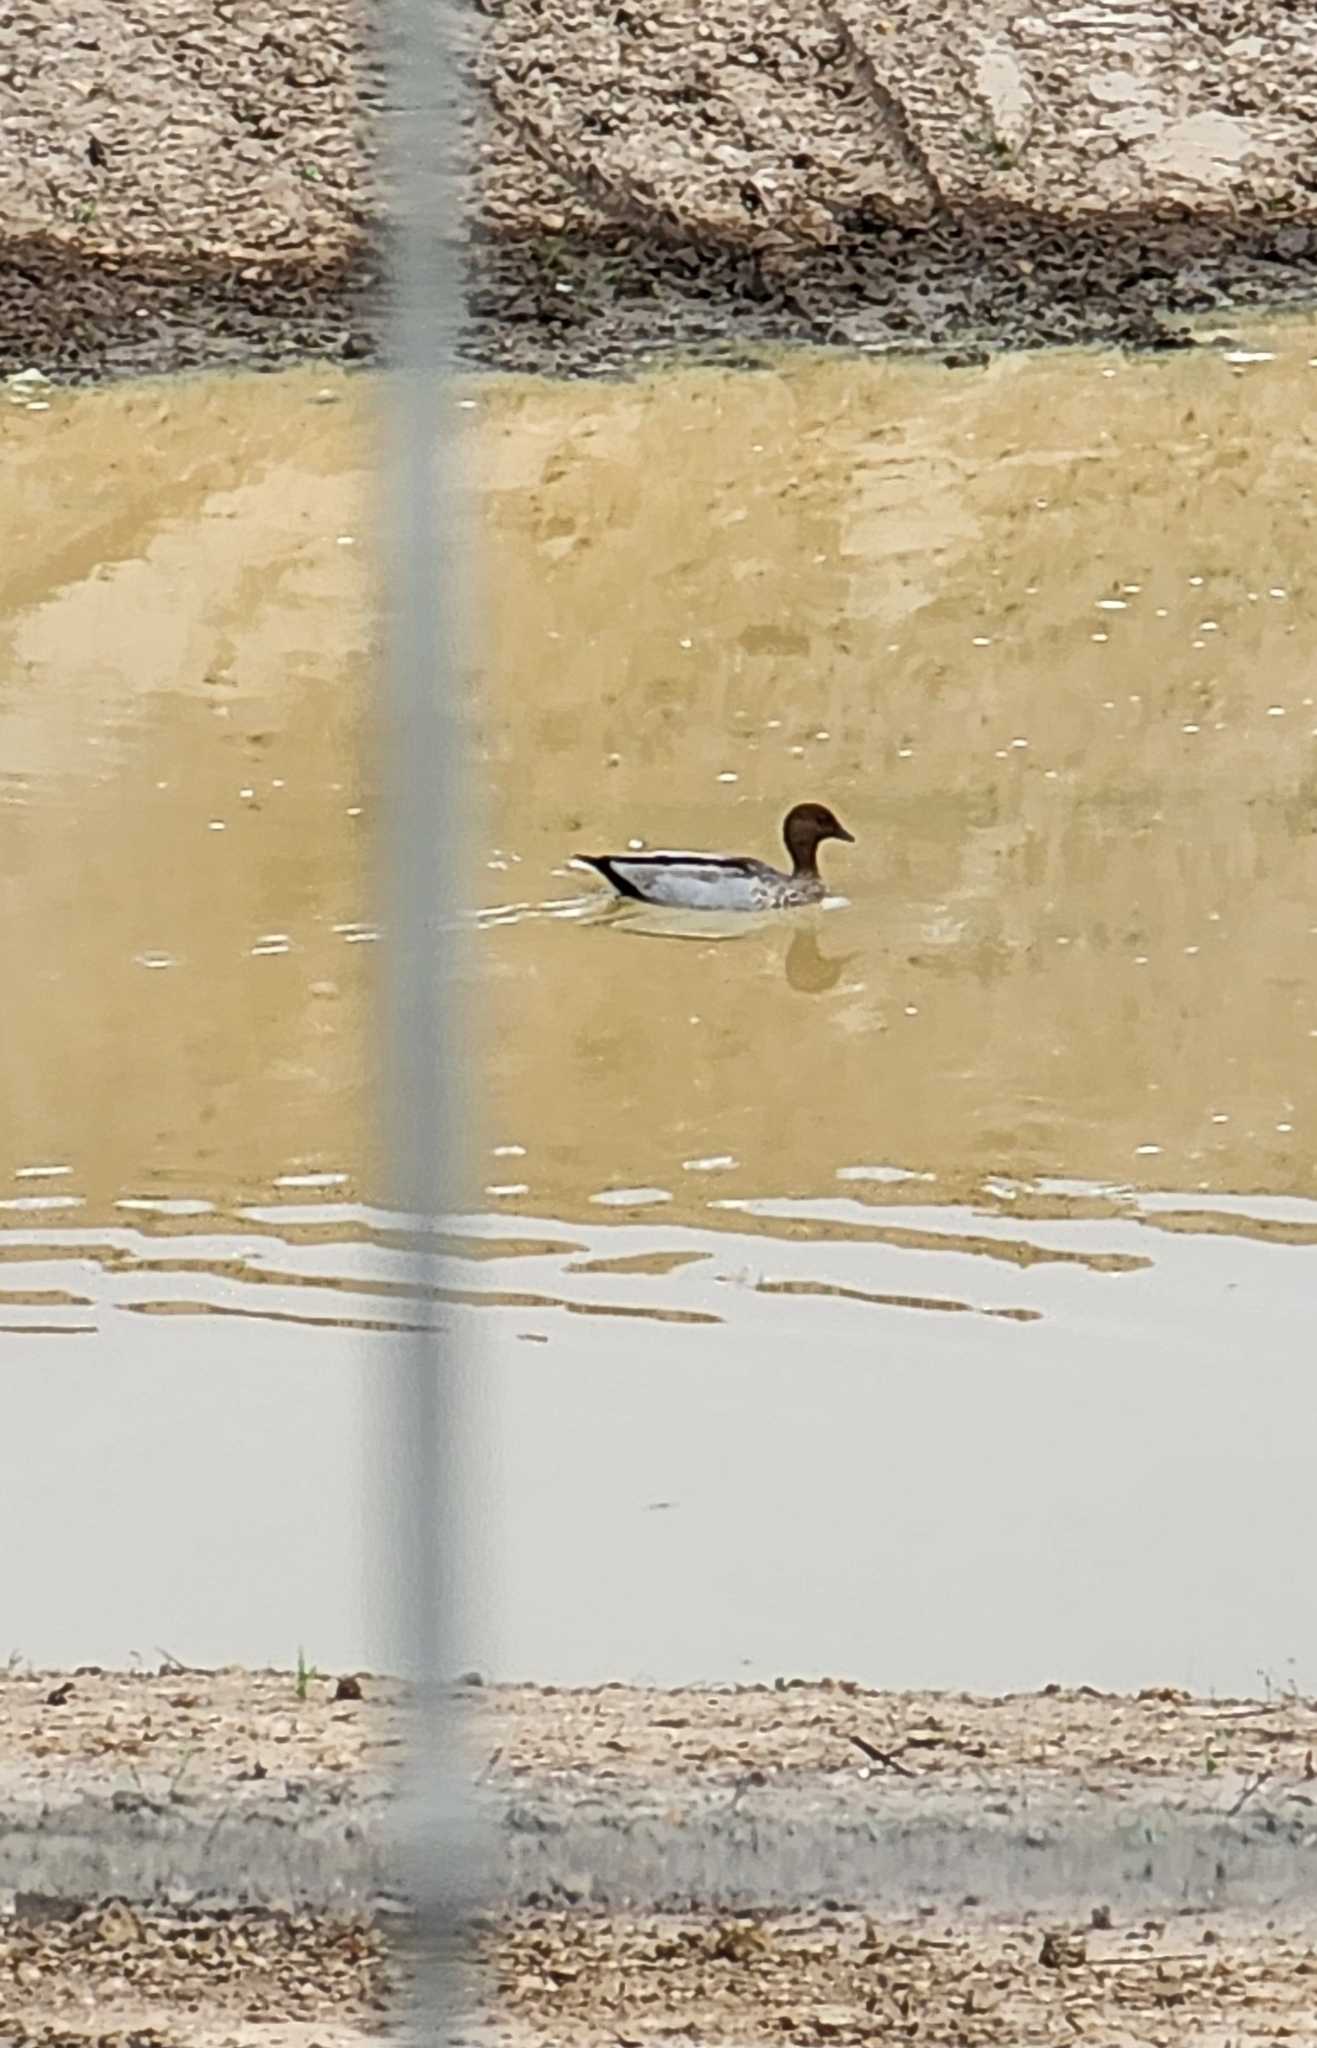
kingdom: Animalia
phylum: Chordata
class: Aves
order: Anseriformes
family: Anatidae
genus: Chenonetta
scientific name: Chenonetta jubata
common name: Maned duck
